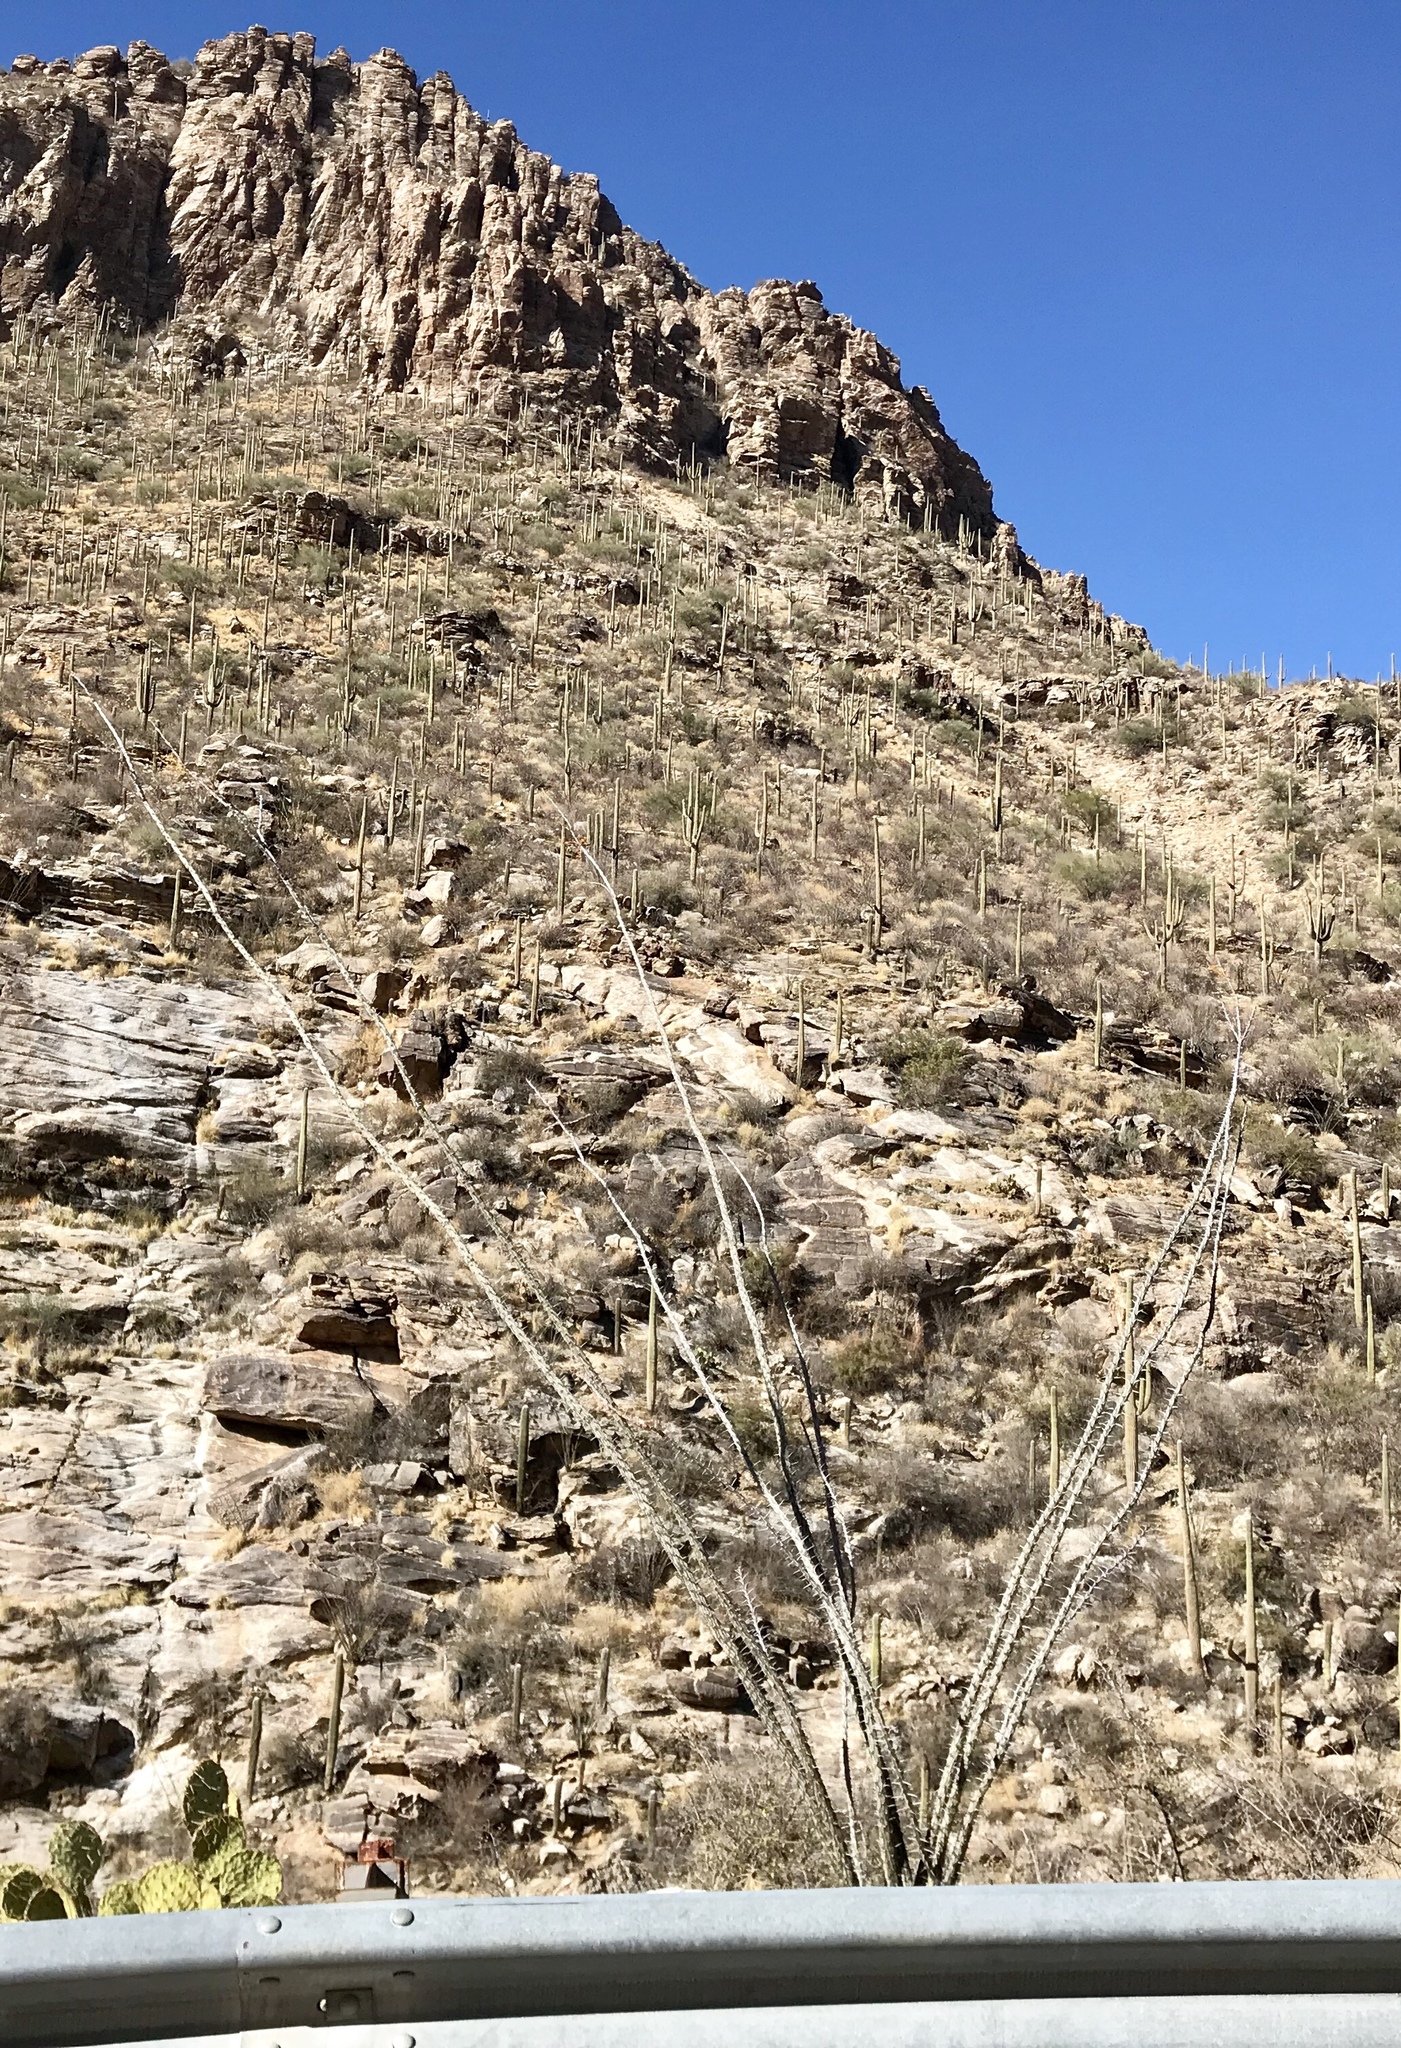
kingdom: Plantae
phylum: Tracheophyta
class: Magnoliopsida
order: Ericales
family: Fouquieriaceae
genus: Fouquieria
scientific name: Fouquieria splendens
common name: Vine-cactus
